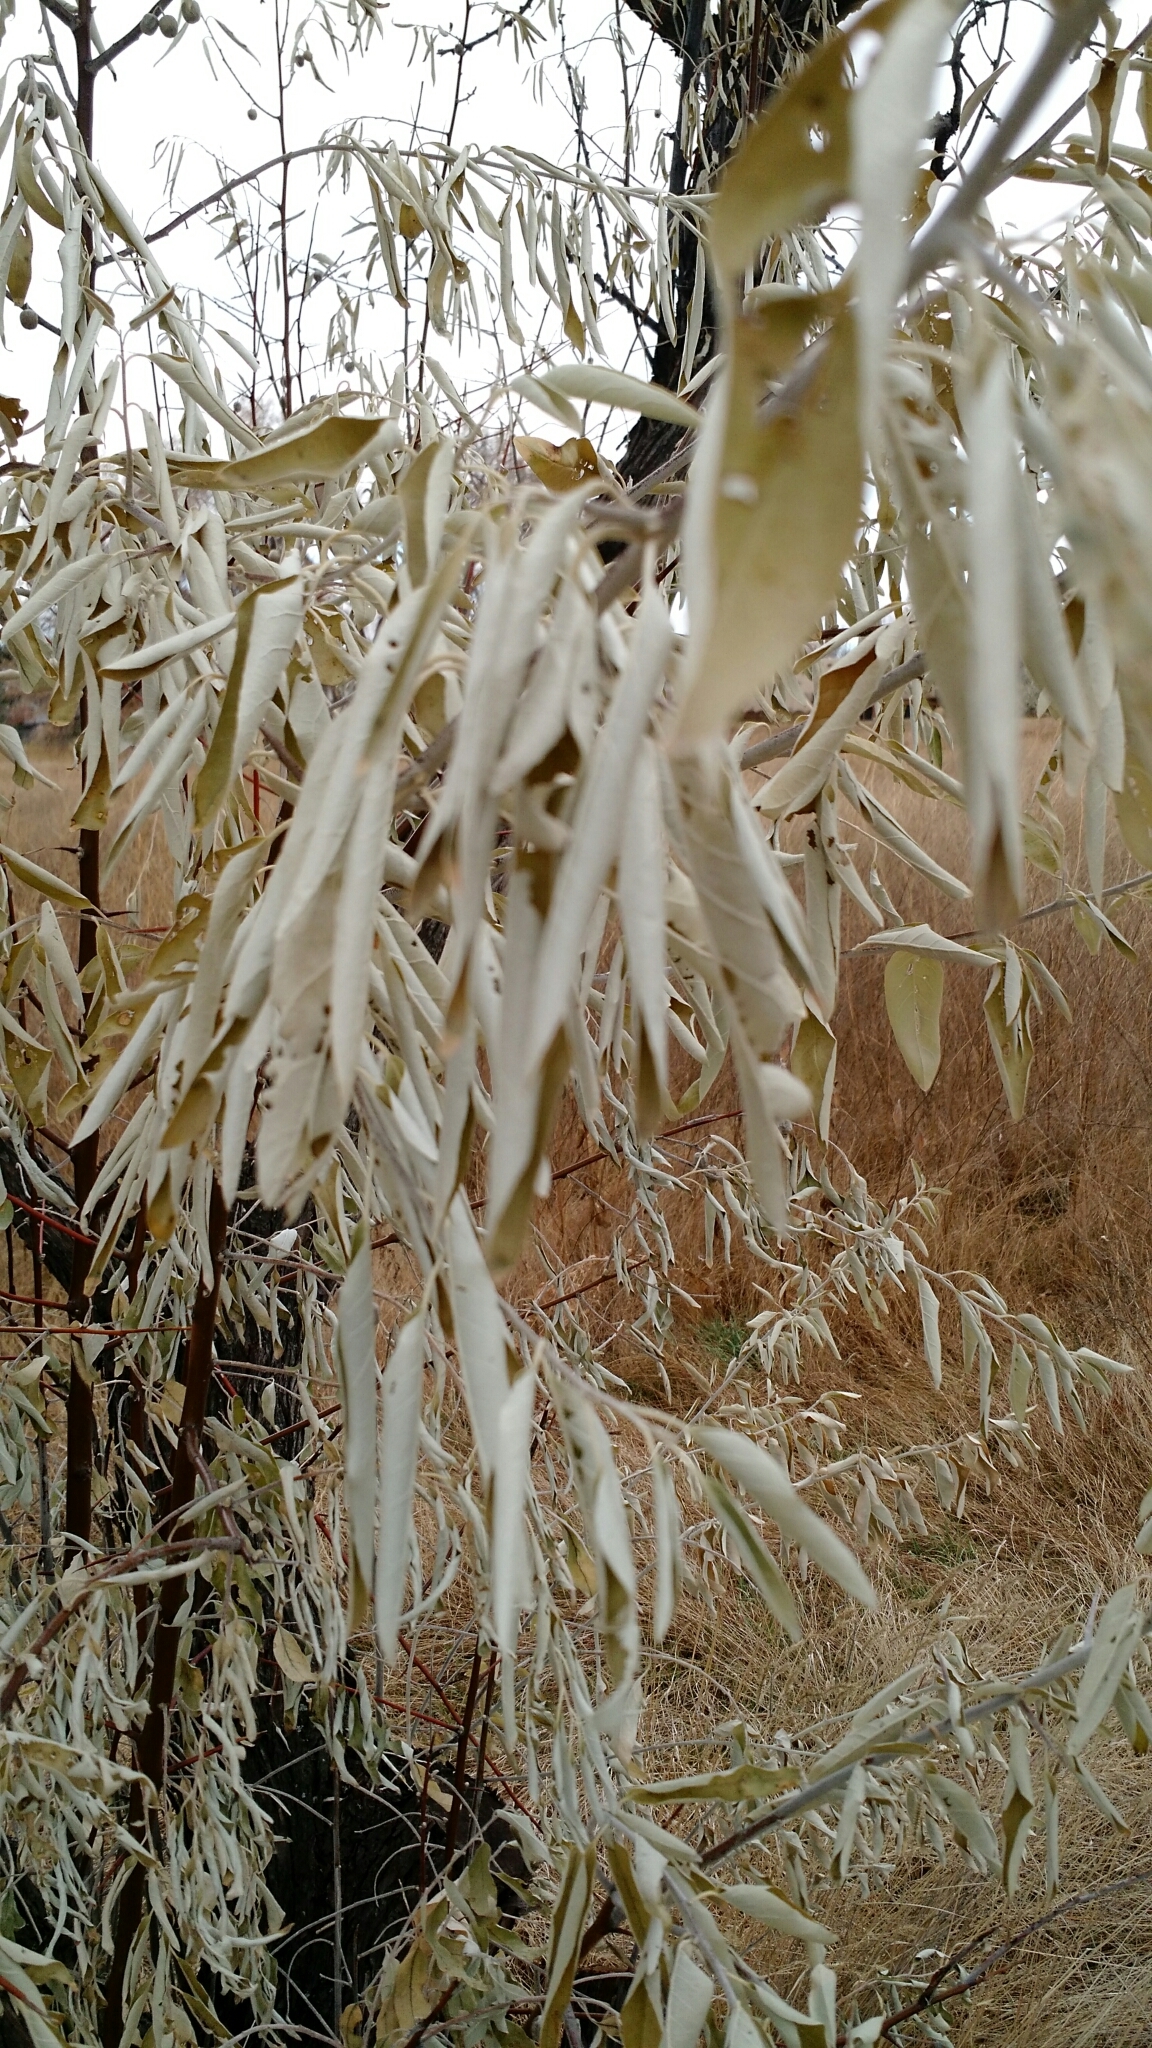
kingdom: Plantae
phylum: Tracheophyta
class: Magnoliopsida
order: Rosales
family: Elaeagnaceae
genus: Elaeagnus
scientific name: Elaeagnus angustifolia
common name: Russian olive
